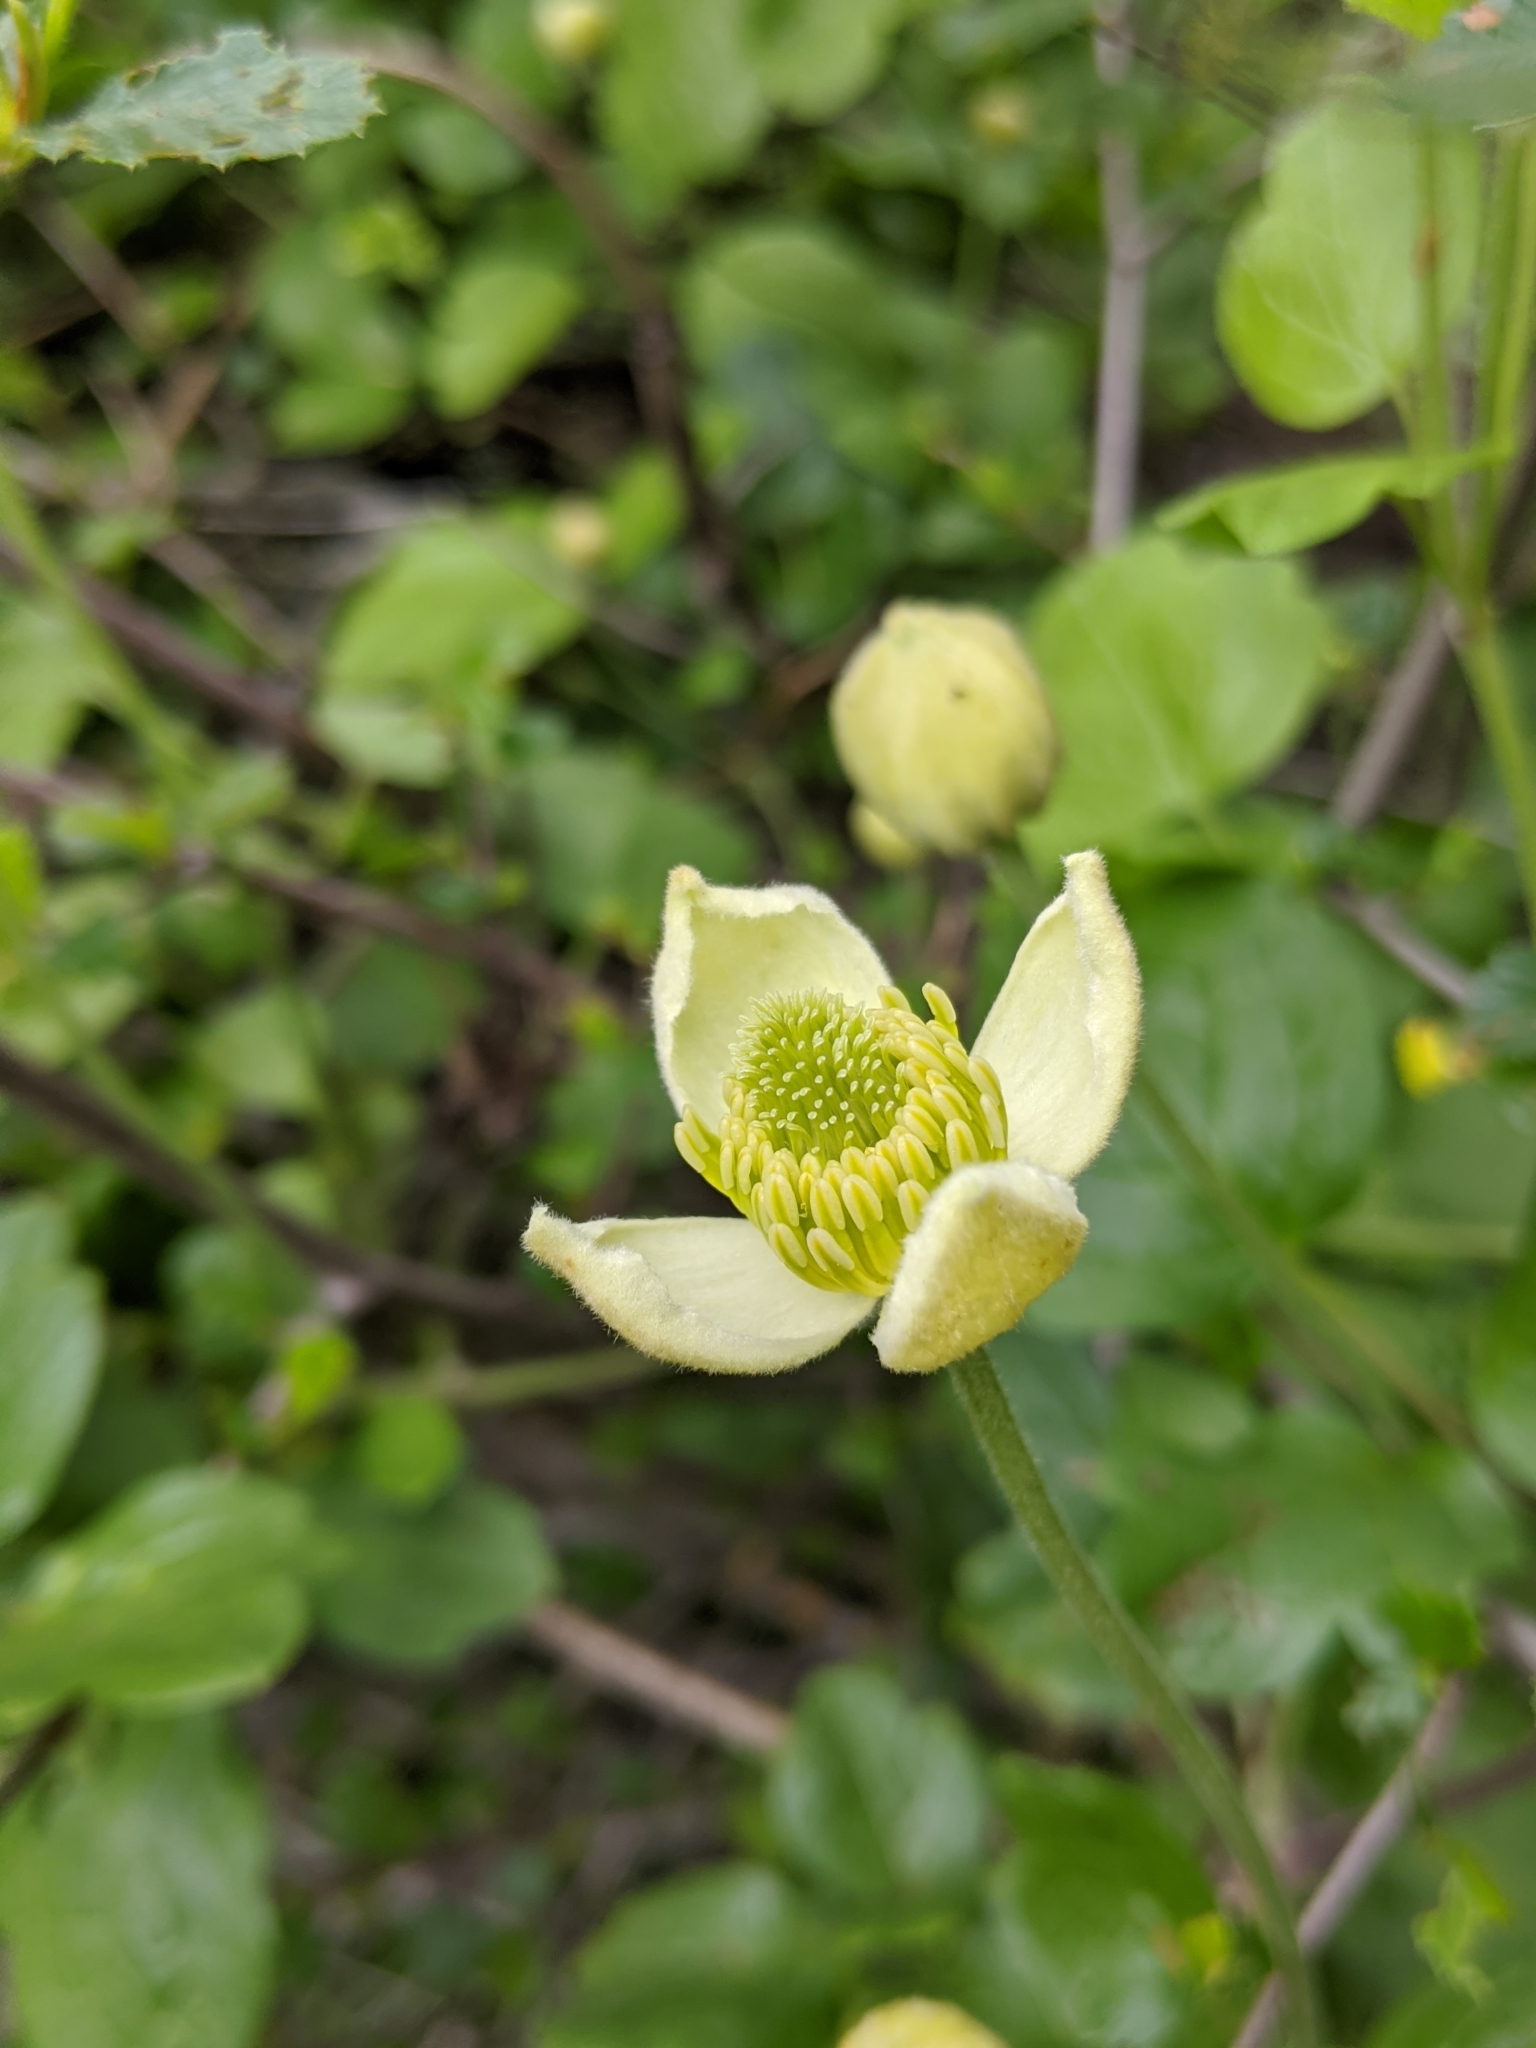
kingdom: Plantae
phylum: Tracheophyta
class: Magnoliopsida
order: Ranunculales
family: Ranunculaceae
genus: Clematis
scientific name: Clematis lasiantha
